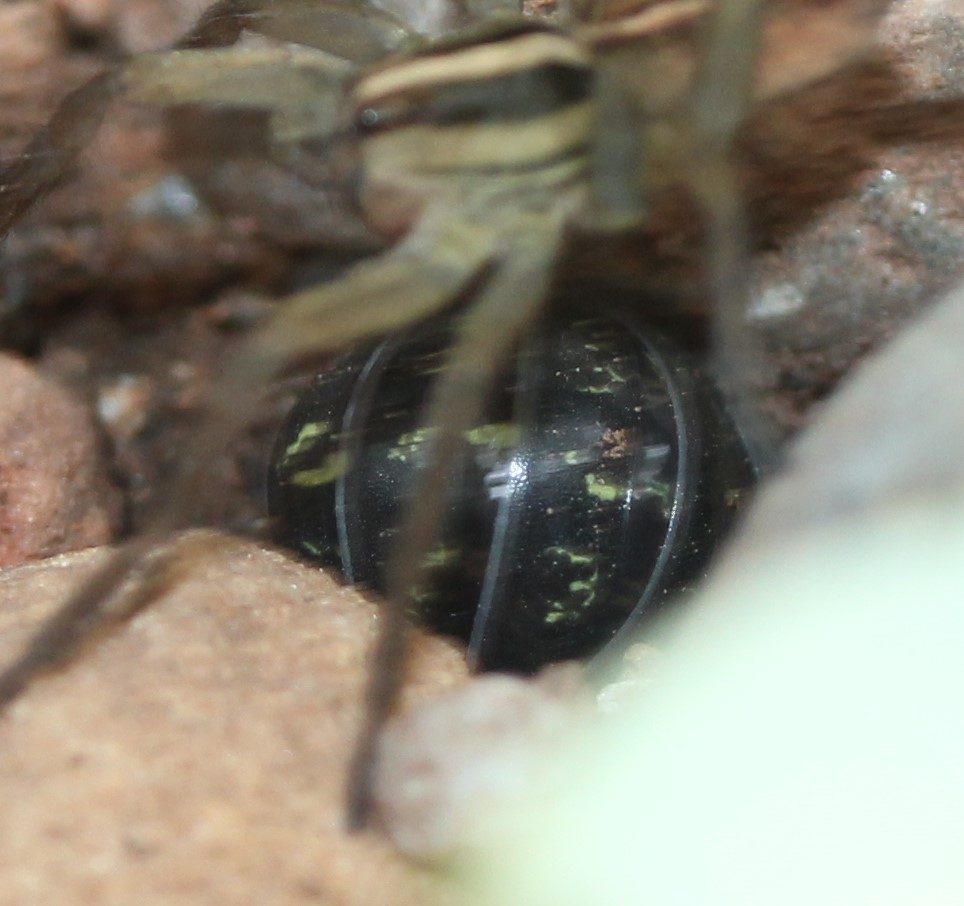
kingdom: Animalia
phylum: Arthropoda
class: Malacostraca
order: Isopoda
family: Armadillidiidae
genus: Armadillidium
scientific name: Armadillidium vulgare
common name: Common pill woodlouse
